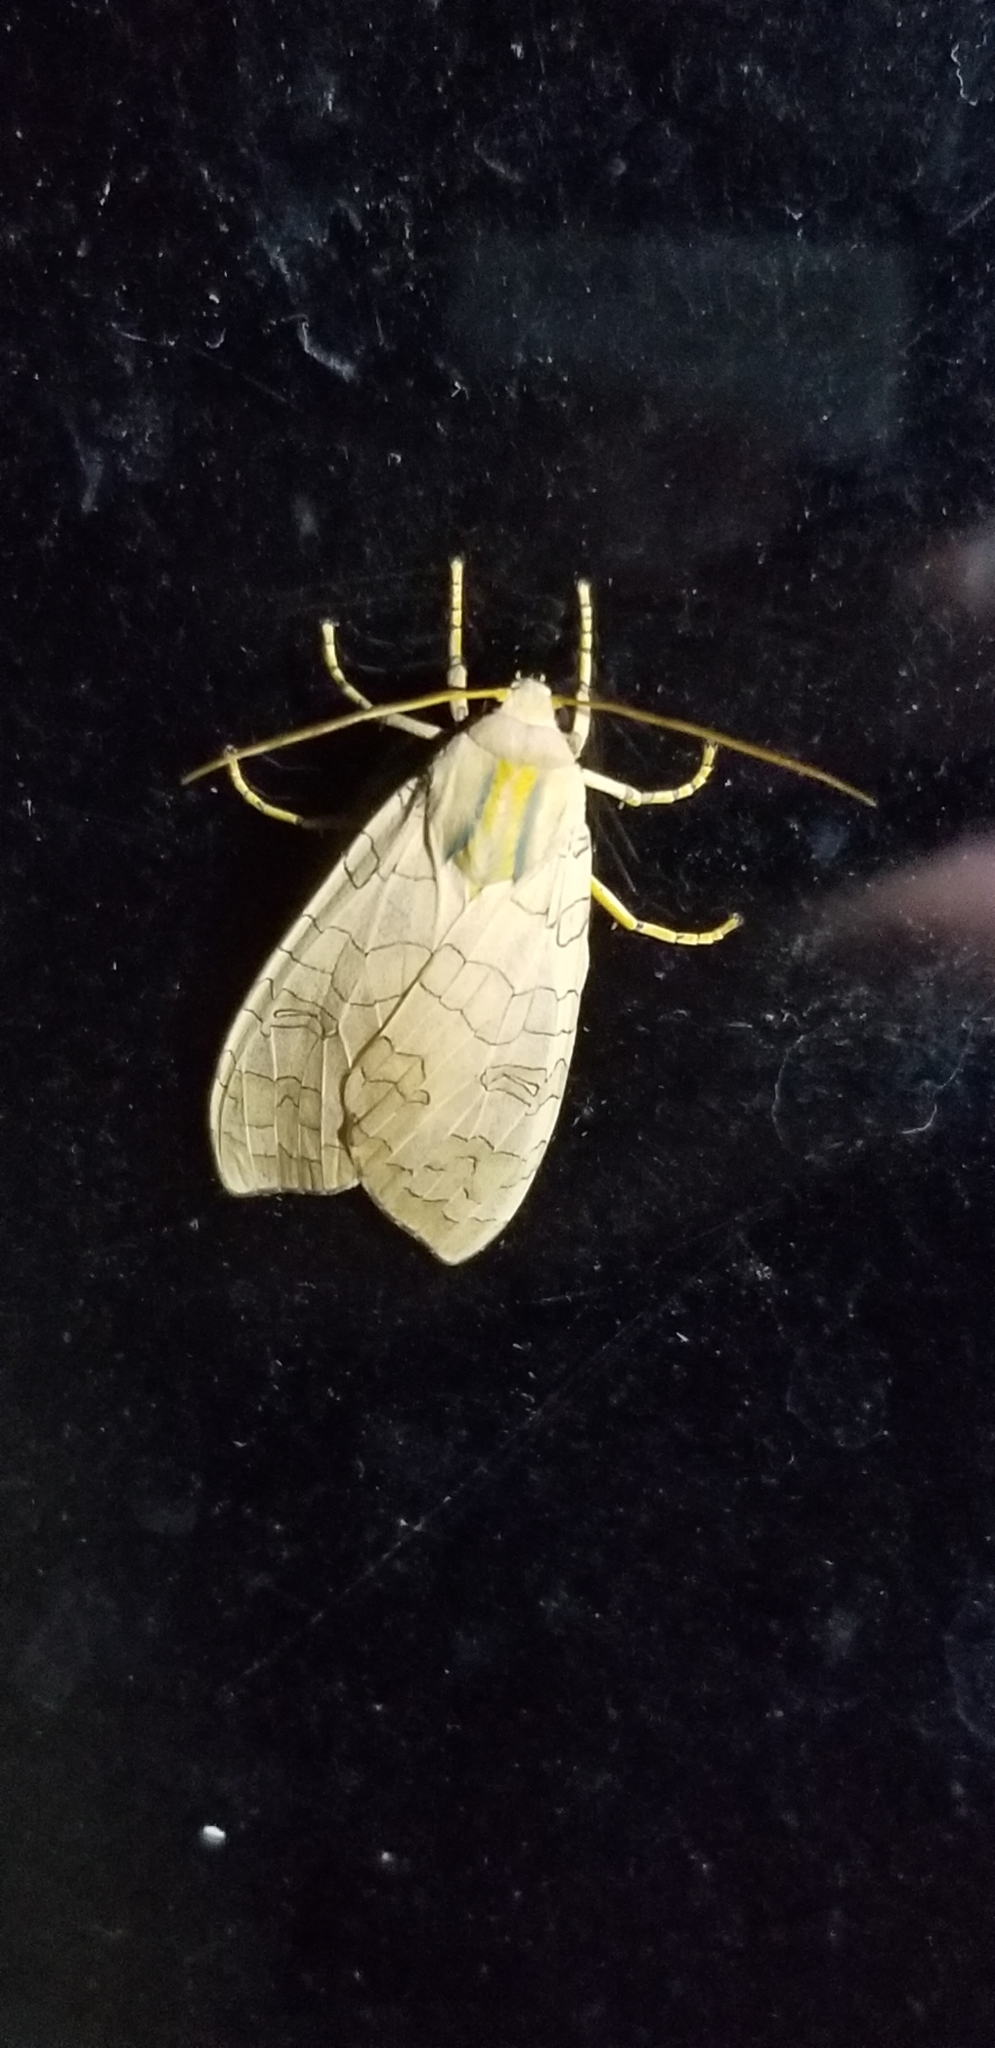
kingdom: Animalia
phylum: Arthropoda
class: Insecta
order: Lepidoptera
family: Erebidae
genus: Halysidota
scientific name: Halysidota
